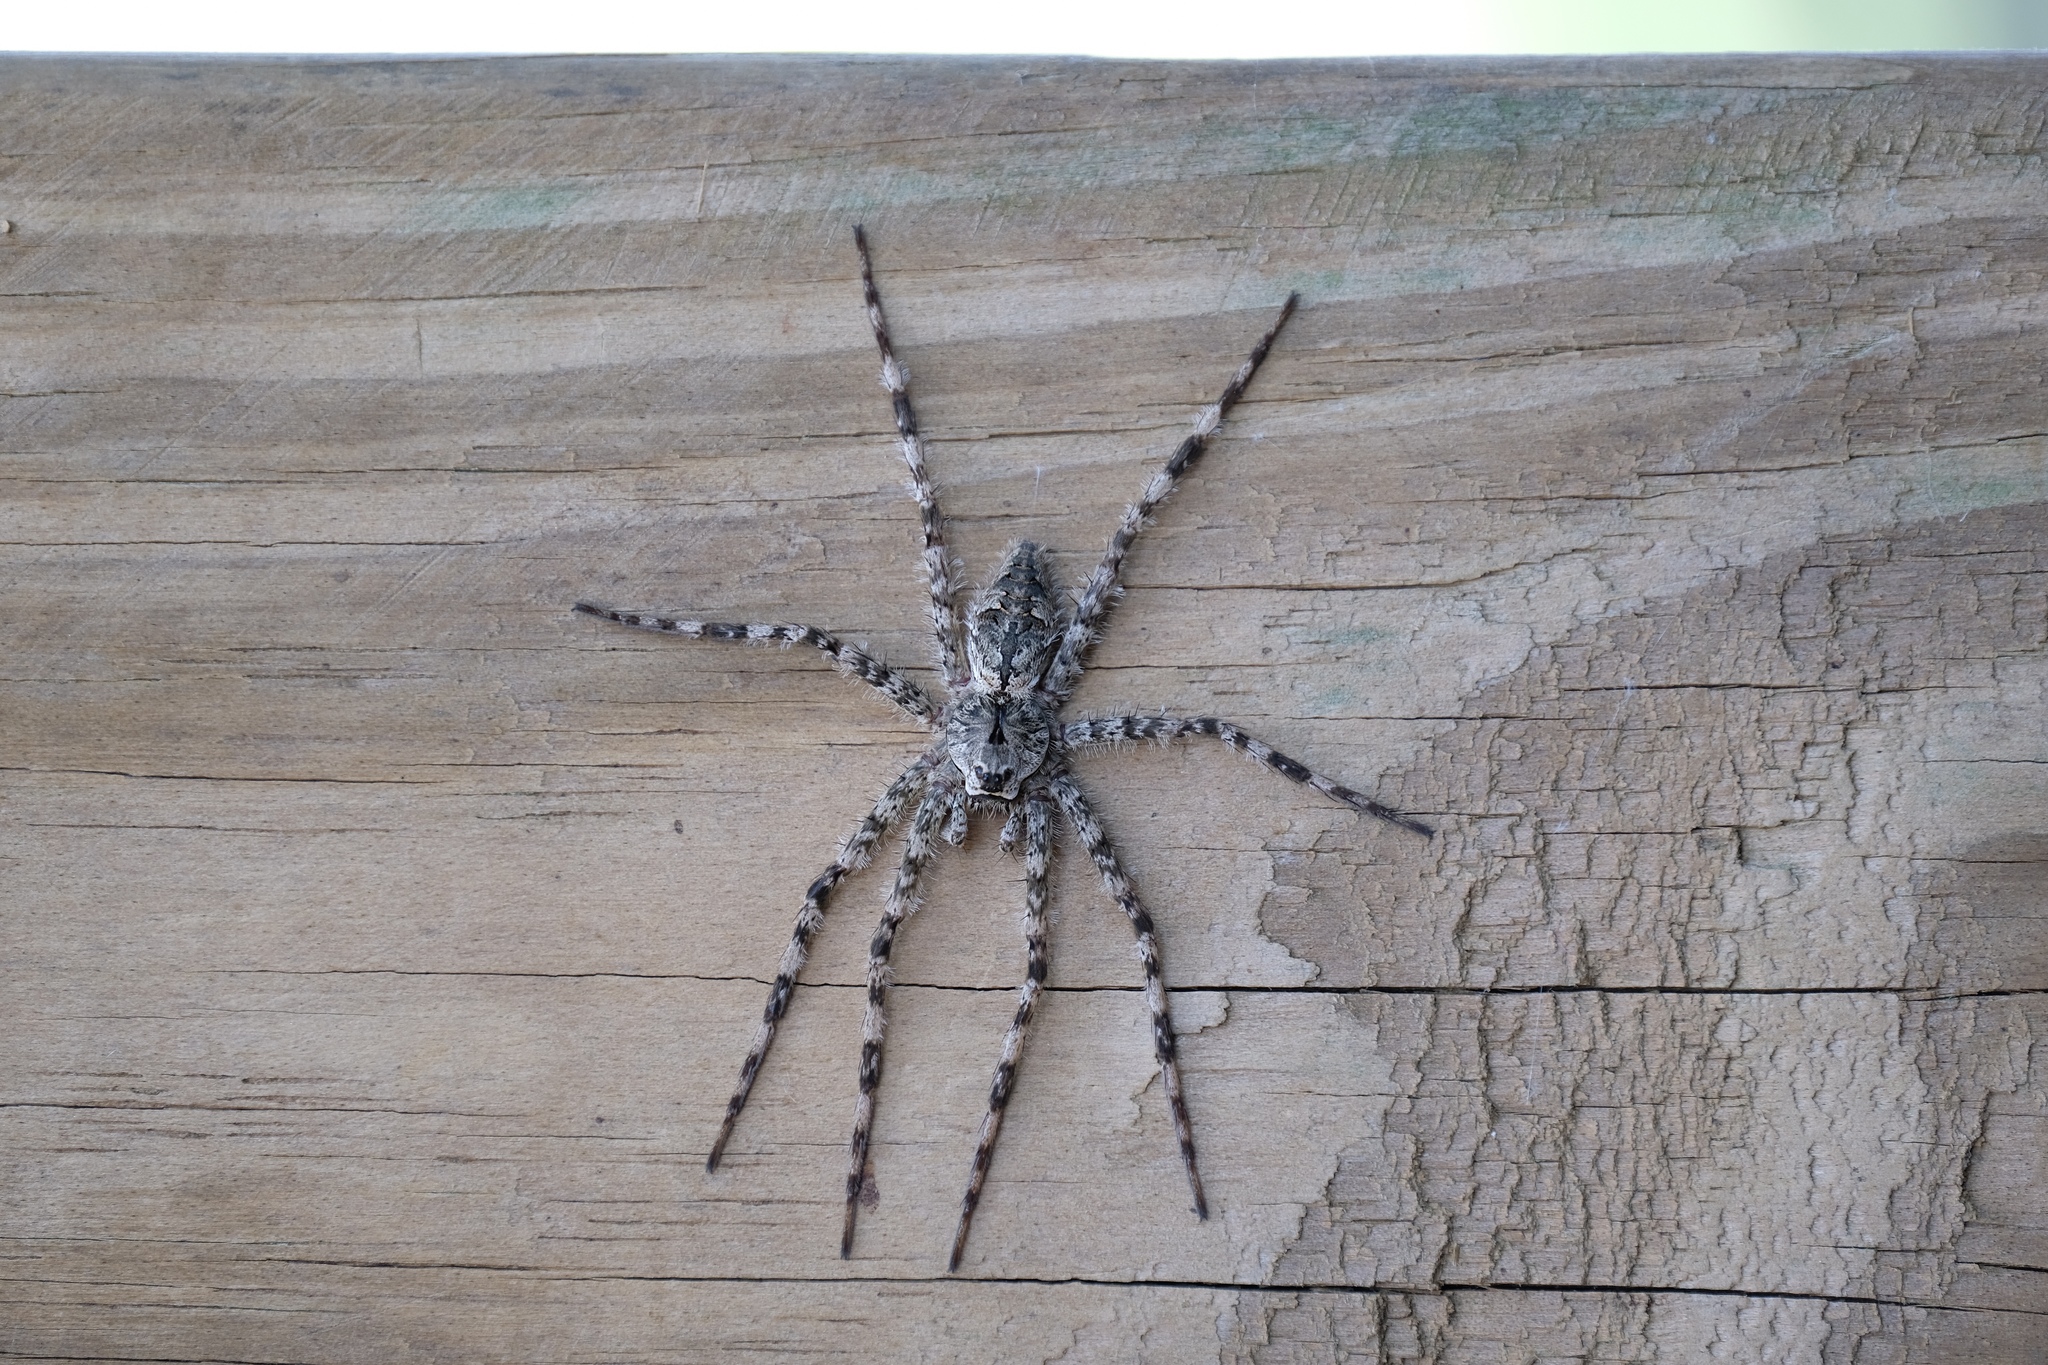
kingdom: Animalia
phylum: Arthropoda
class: Arachnida
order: Araneae
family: Pisauridae
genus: Dolomedes
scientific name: Dolomedes albineus
